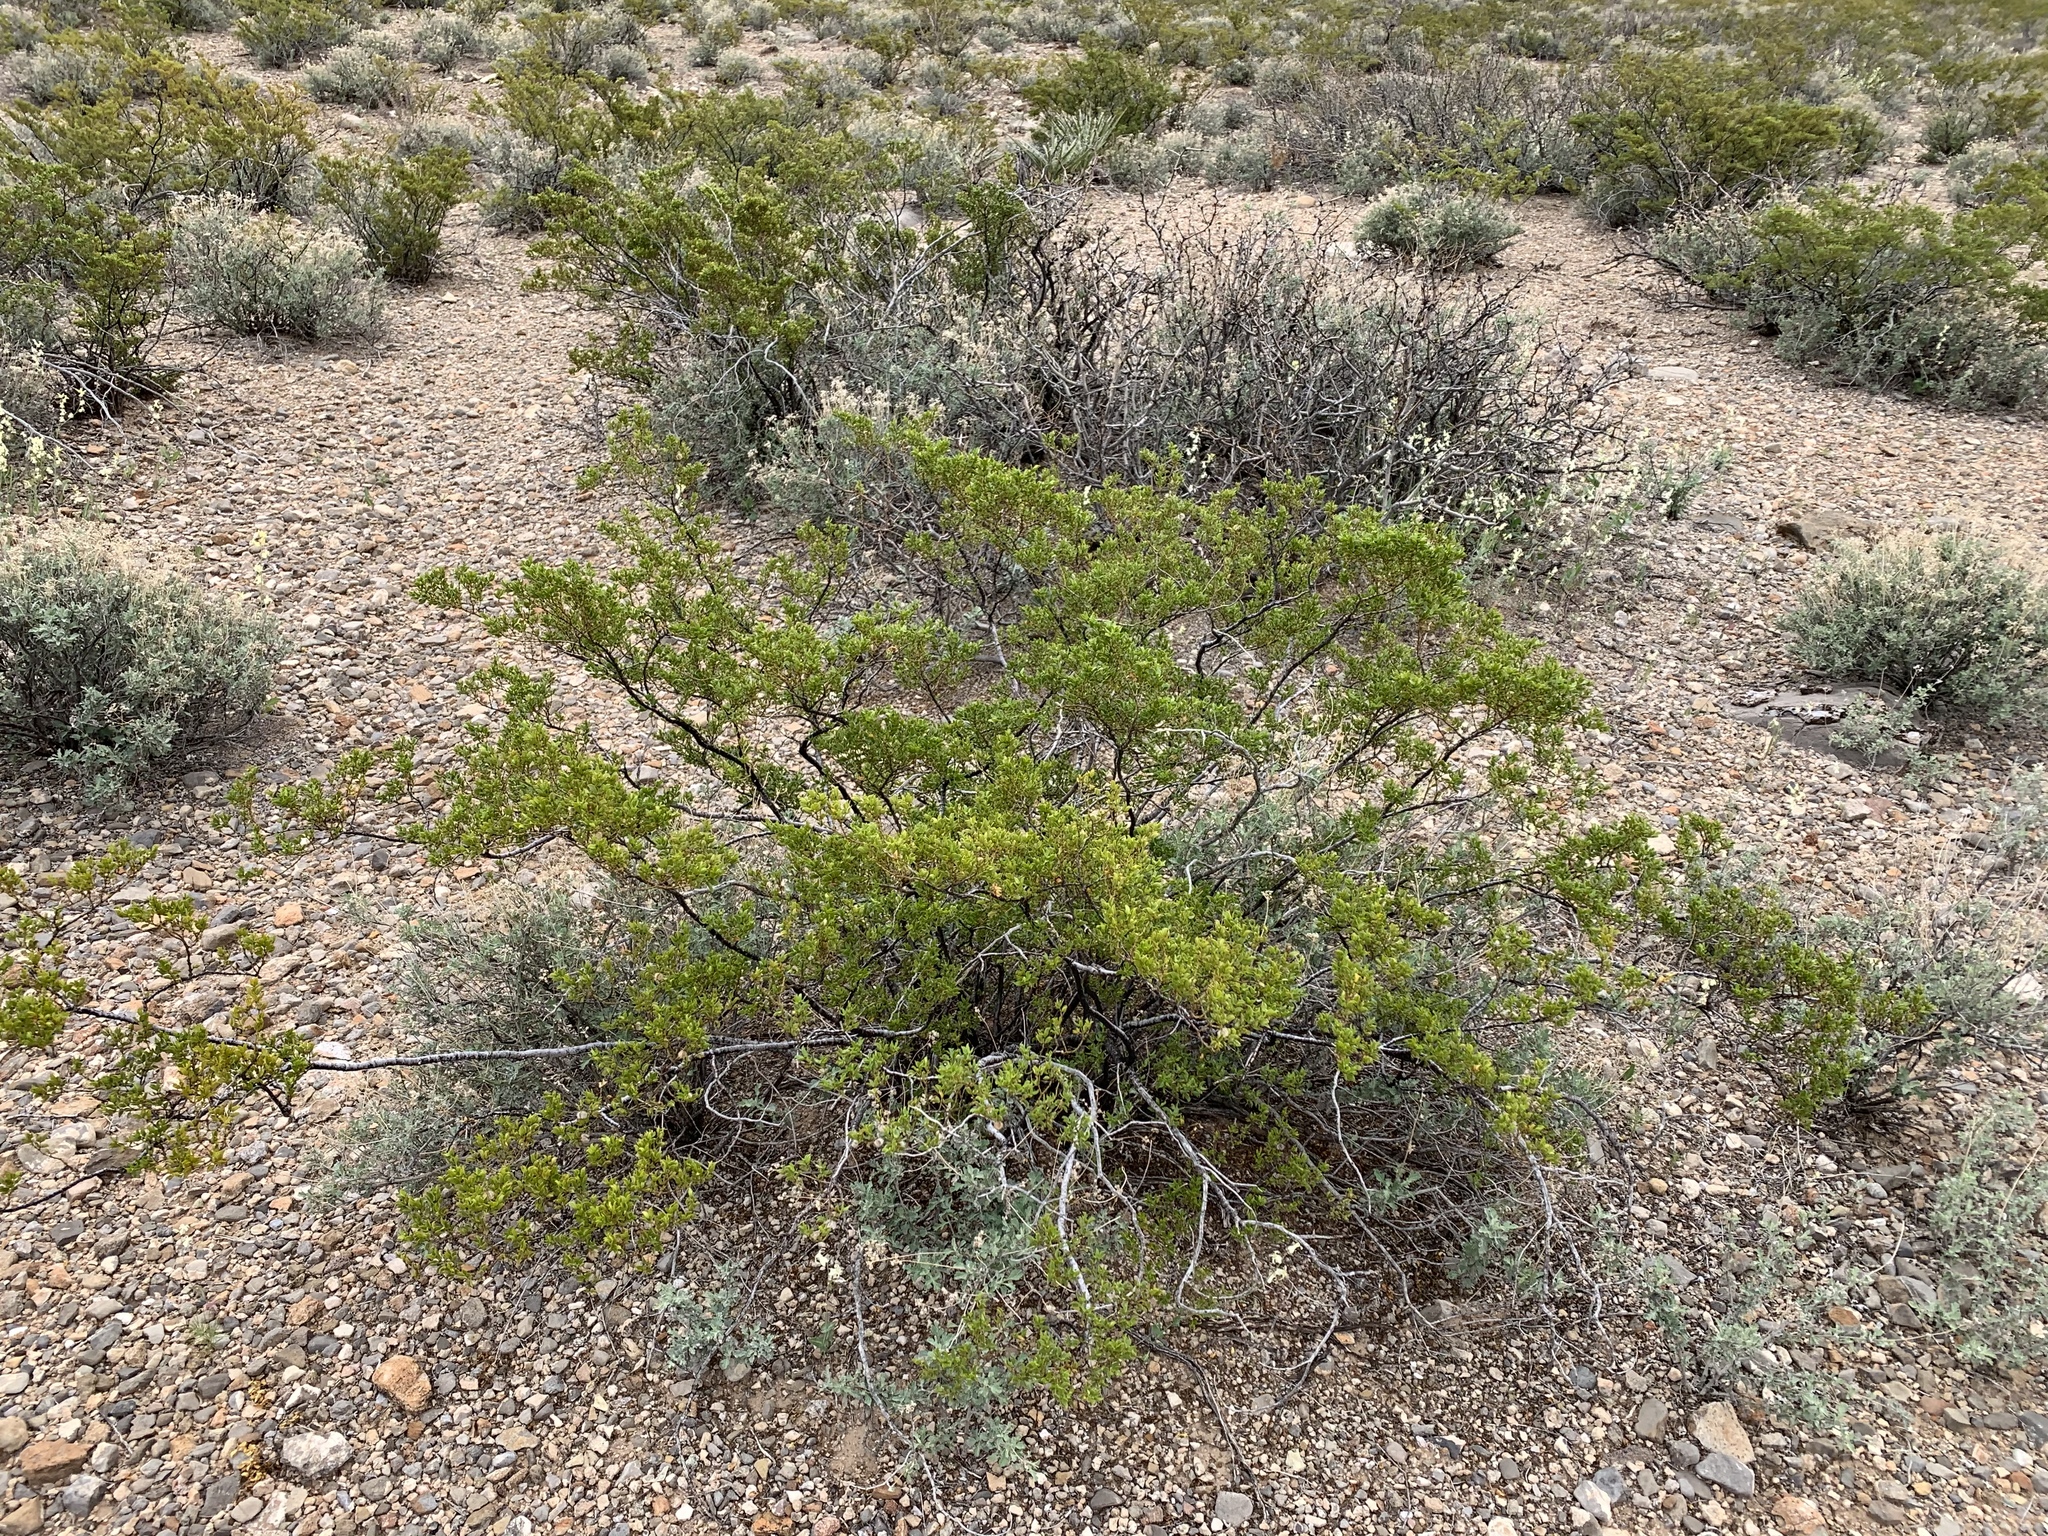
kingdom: Plantae
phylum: Tracheophyta
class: Magnoliopsida
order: Zygophyllales
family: Zygophyllaceae
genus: Larrea
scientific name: Larrea tridentata
